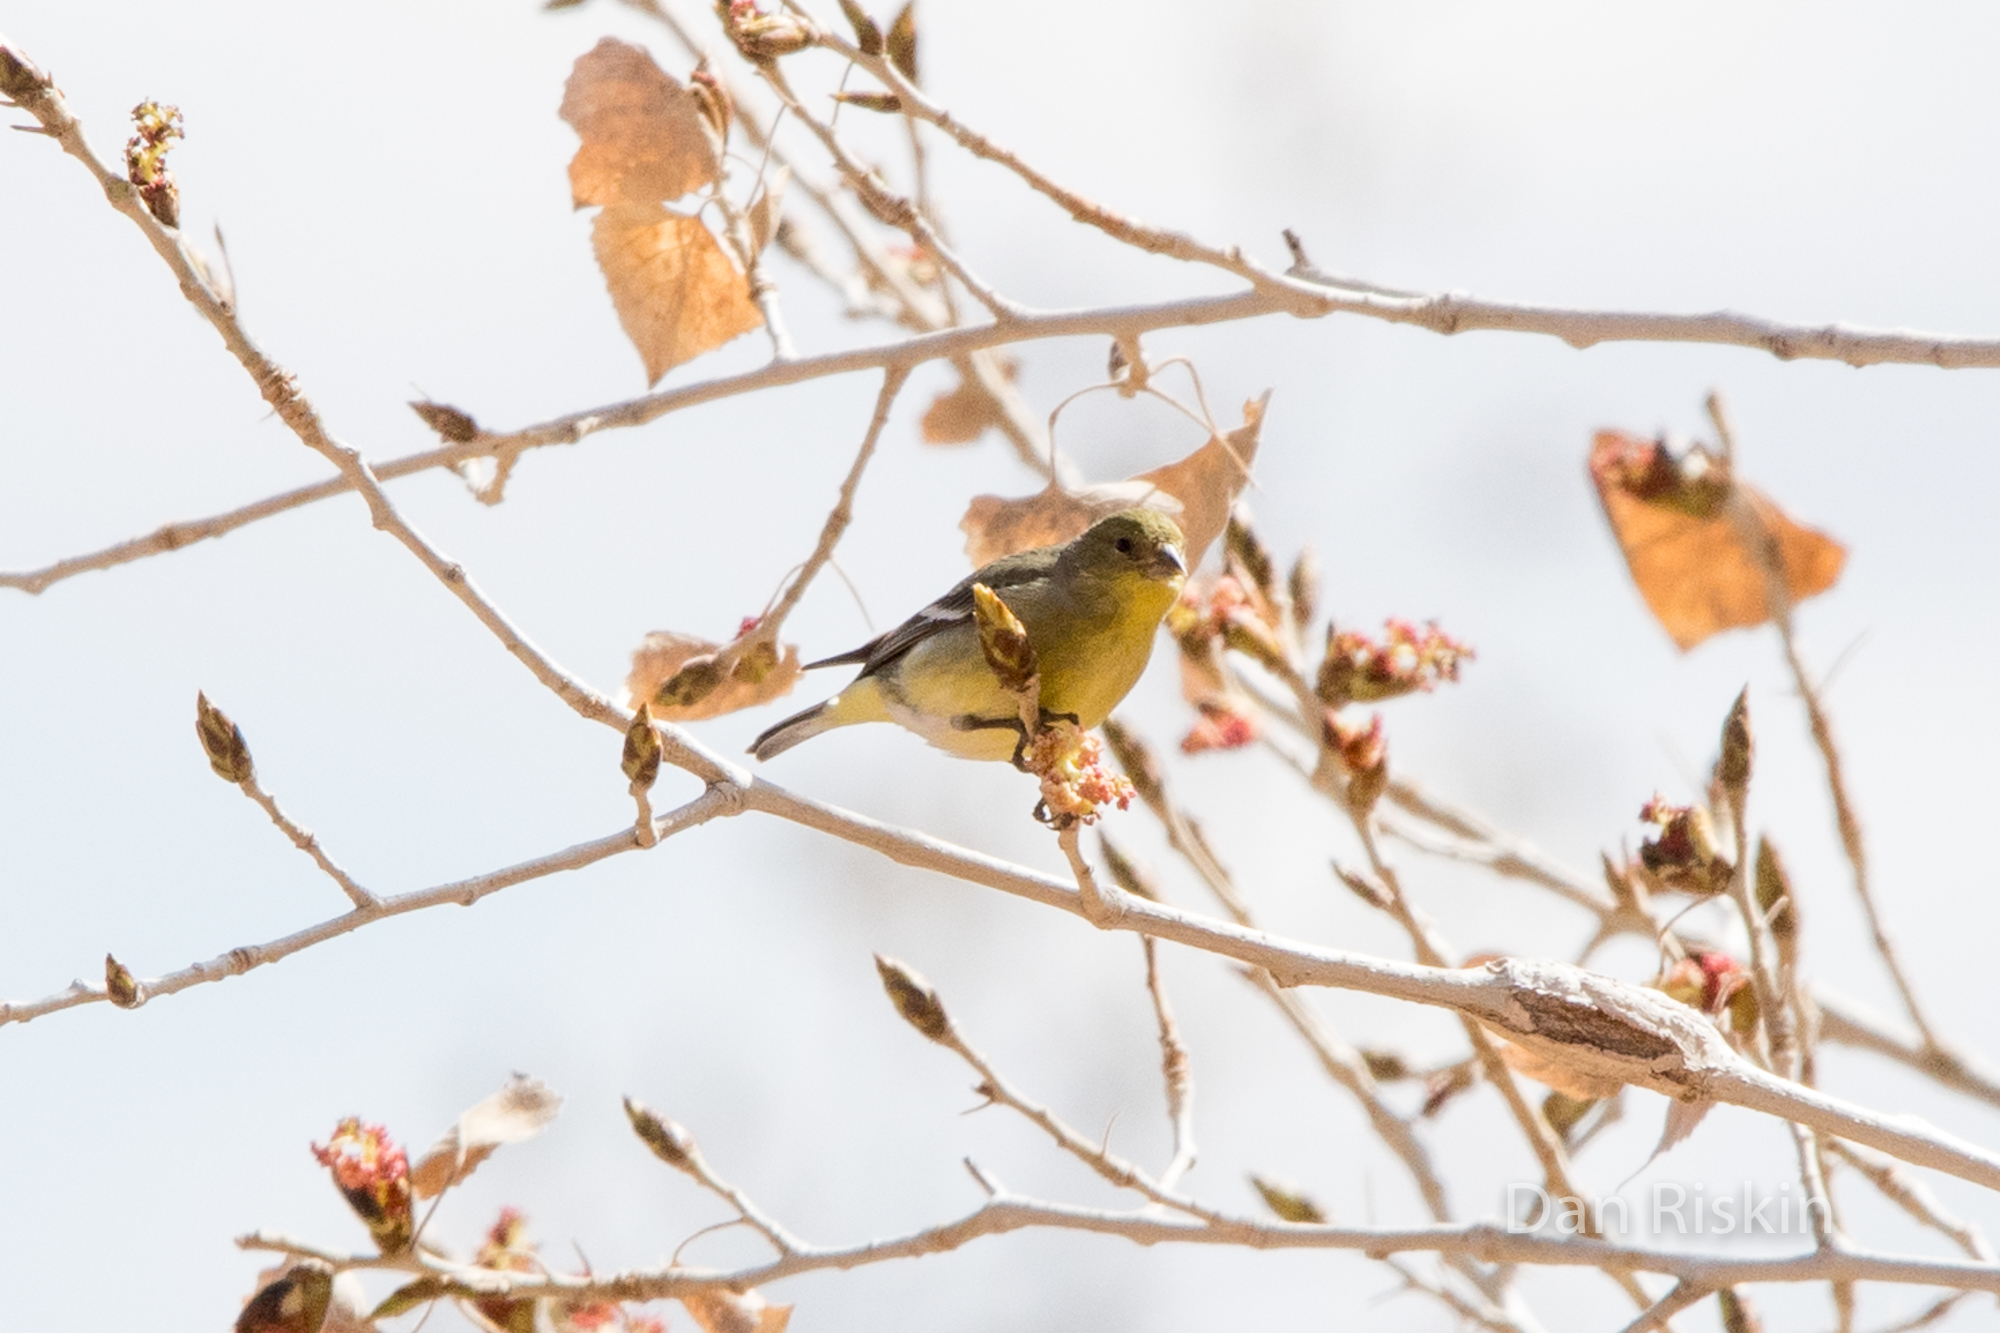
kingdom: Animalia
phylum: Chordata
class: Aves
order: Passeriformes
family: Fringillidae
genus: Spinus
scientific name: Spinus psaltria
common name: Lesser goldfinch
